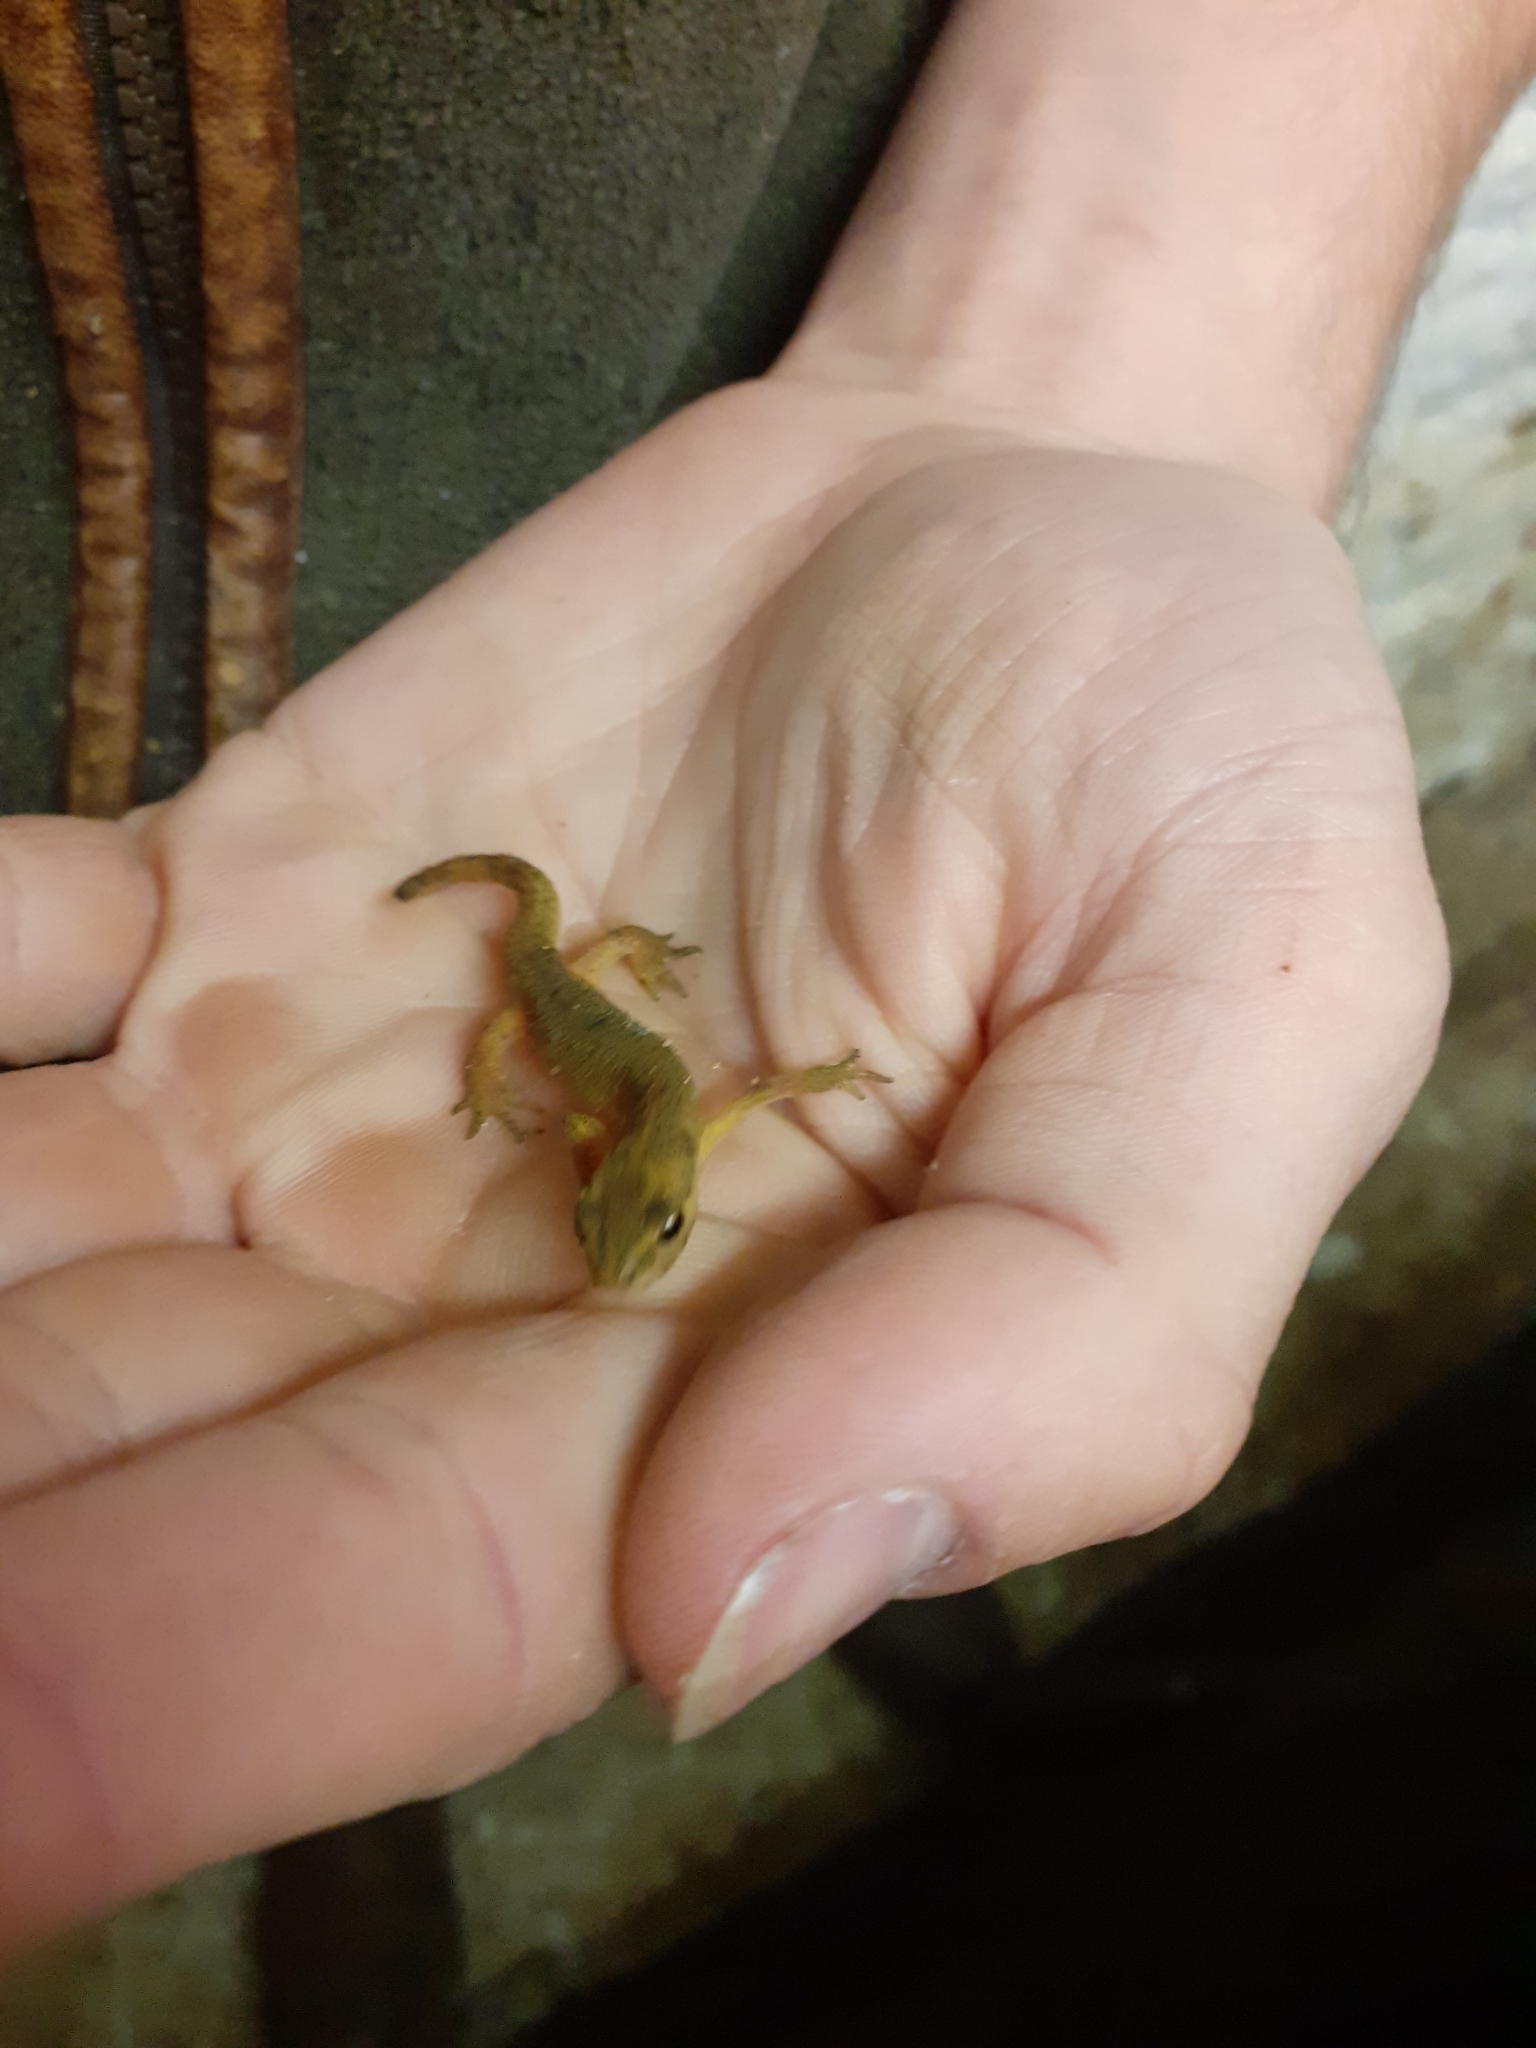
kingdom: Animalia
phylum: Chordata
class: Amphibia
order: Caudata
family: Salamandridae
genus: Lissotriton
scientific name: Lissotriton vulgaris
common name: Smooth newt
